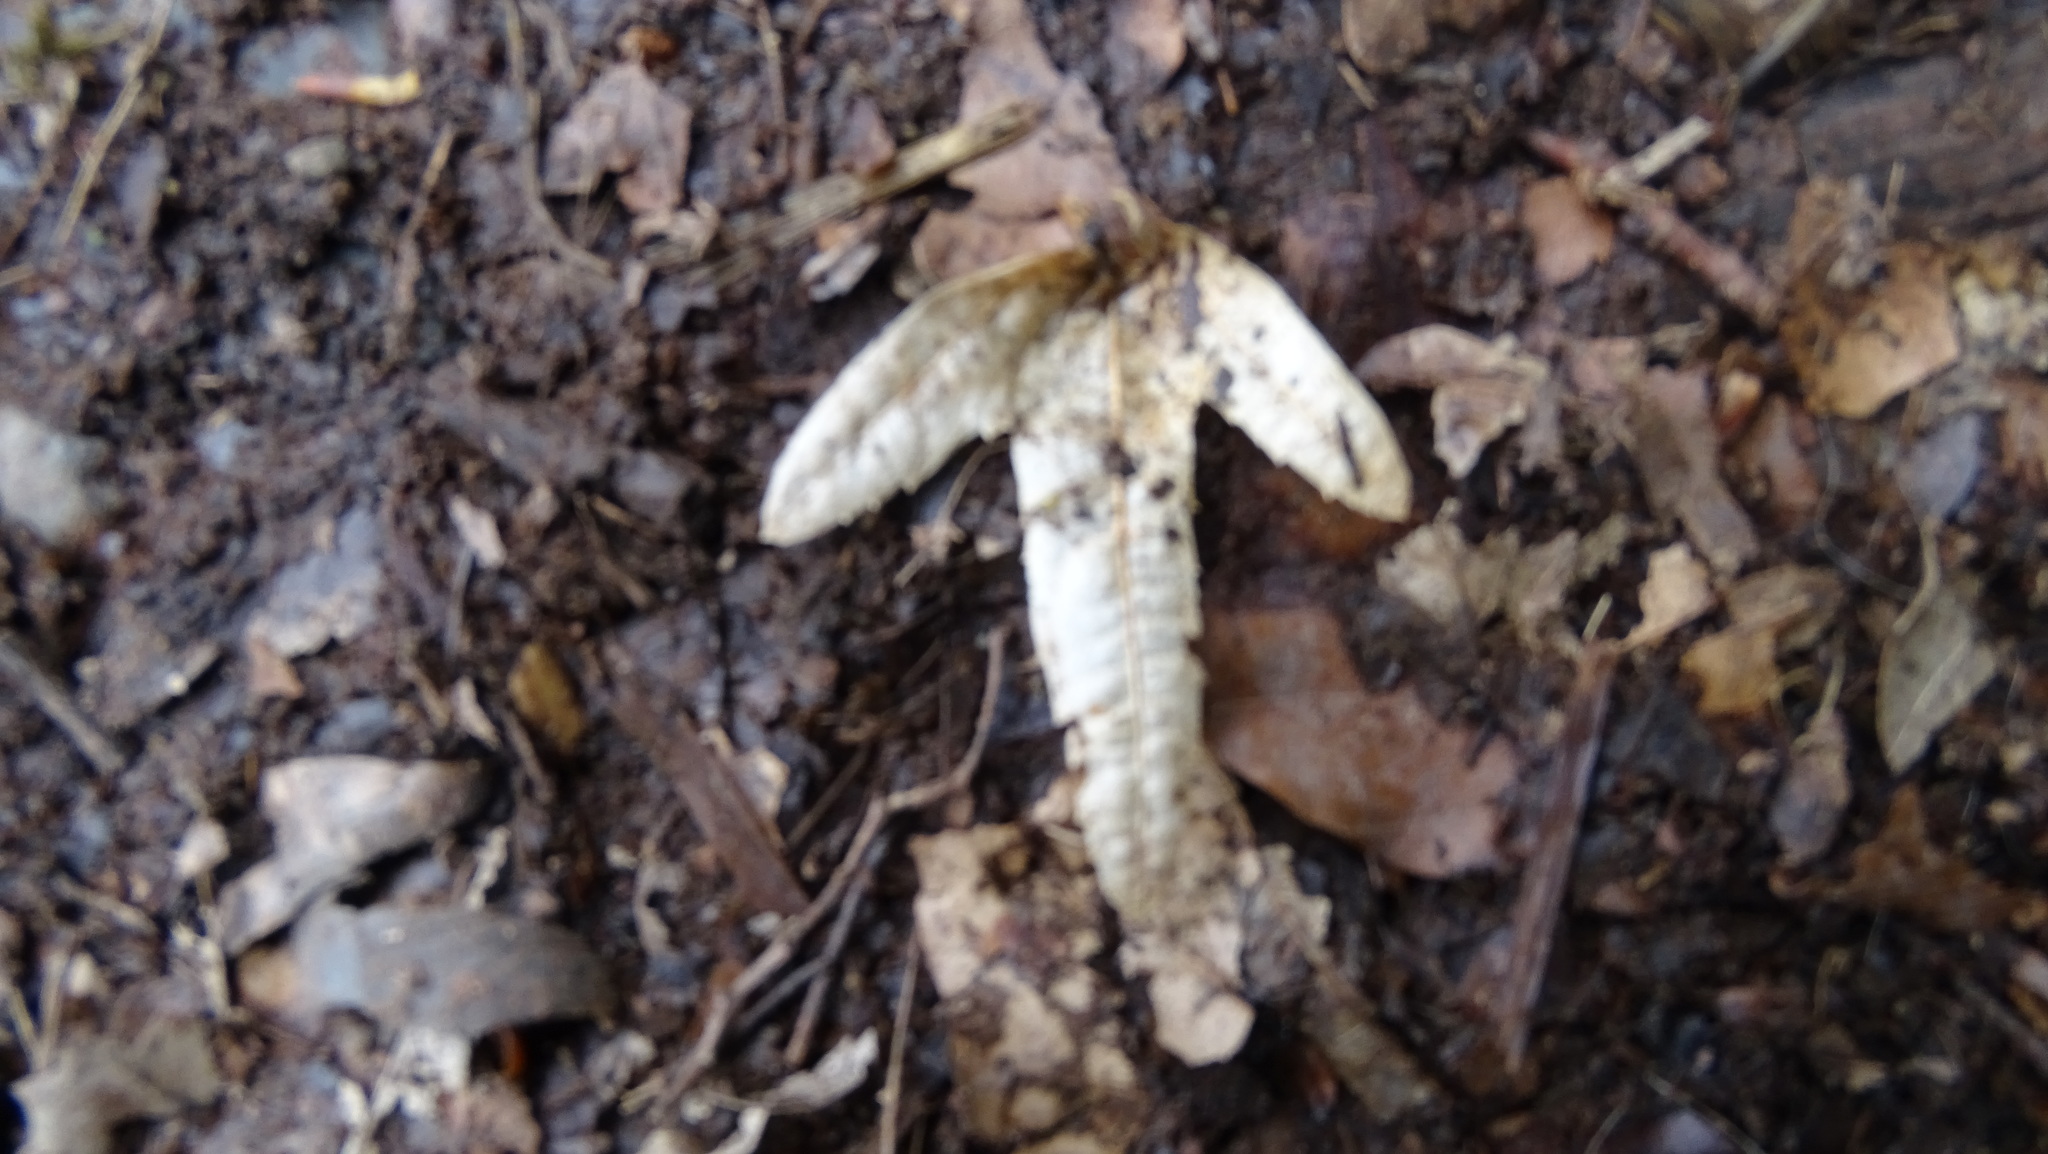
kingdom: Plantae
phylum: Tracheophyta
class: Magnoliopsida
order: Fagales
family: Betulaceae
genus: Carpinus
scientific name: Carpinus betulus
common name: Hornbeam
